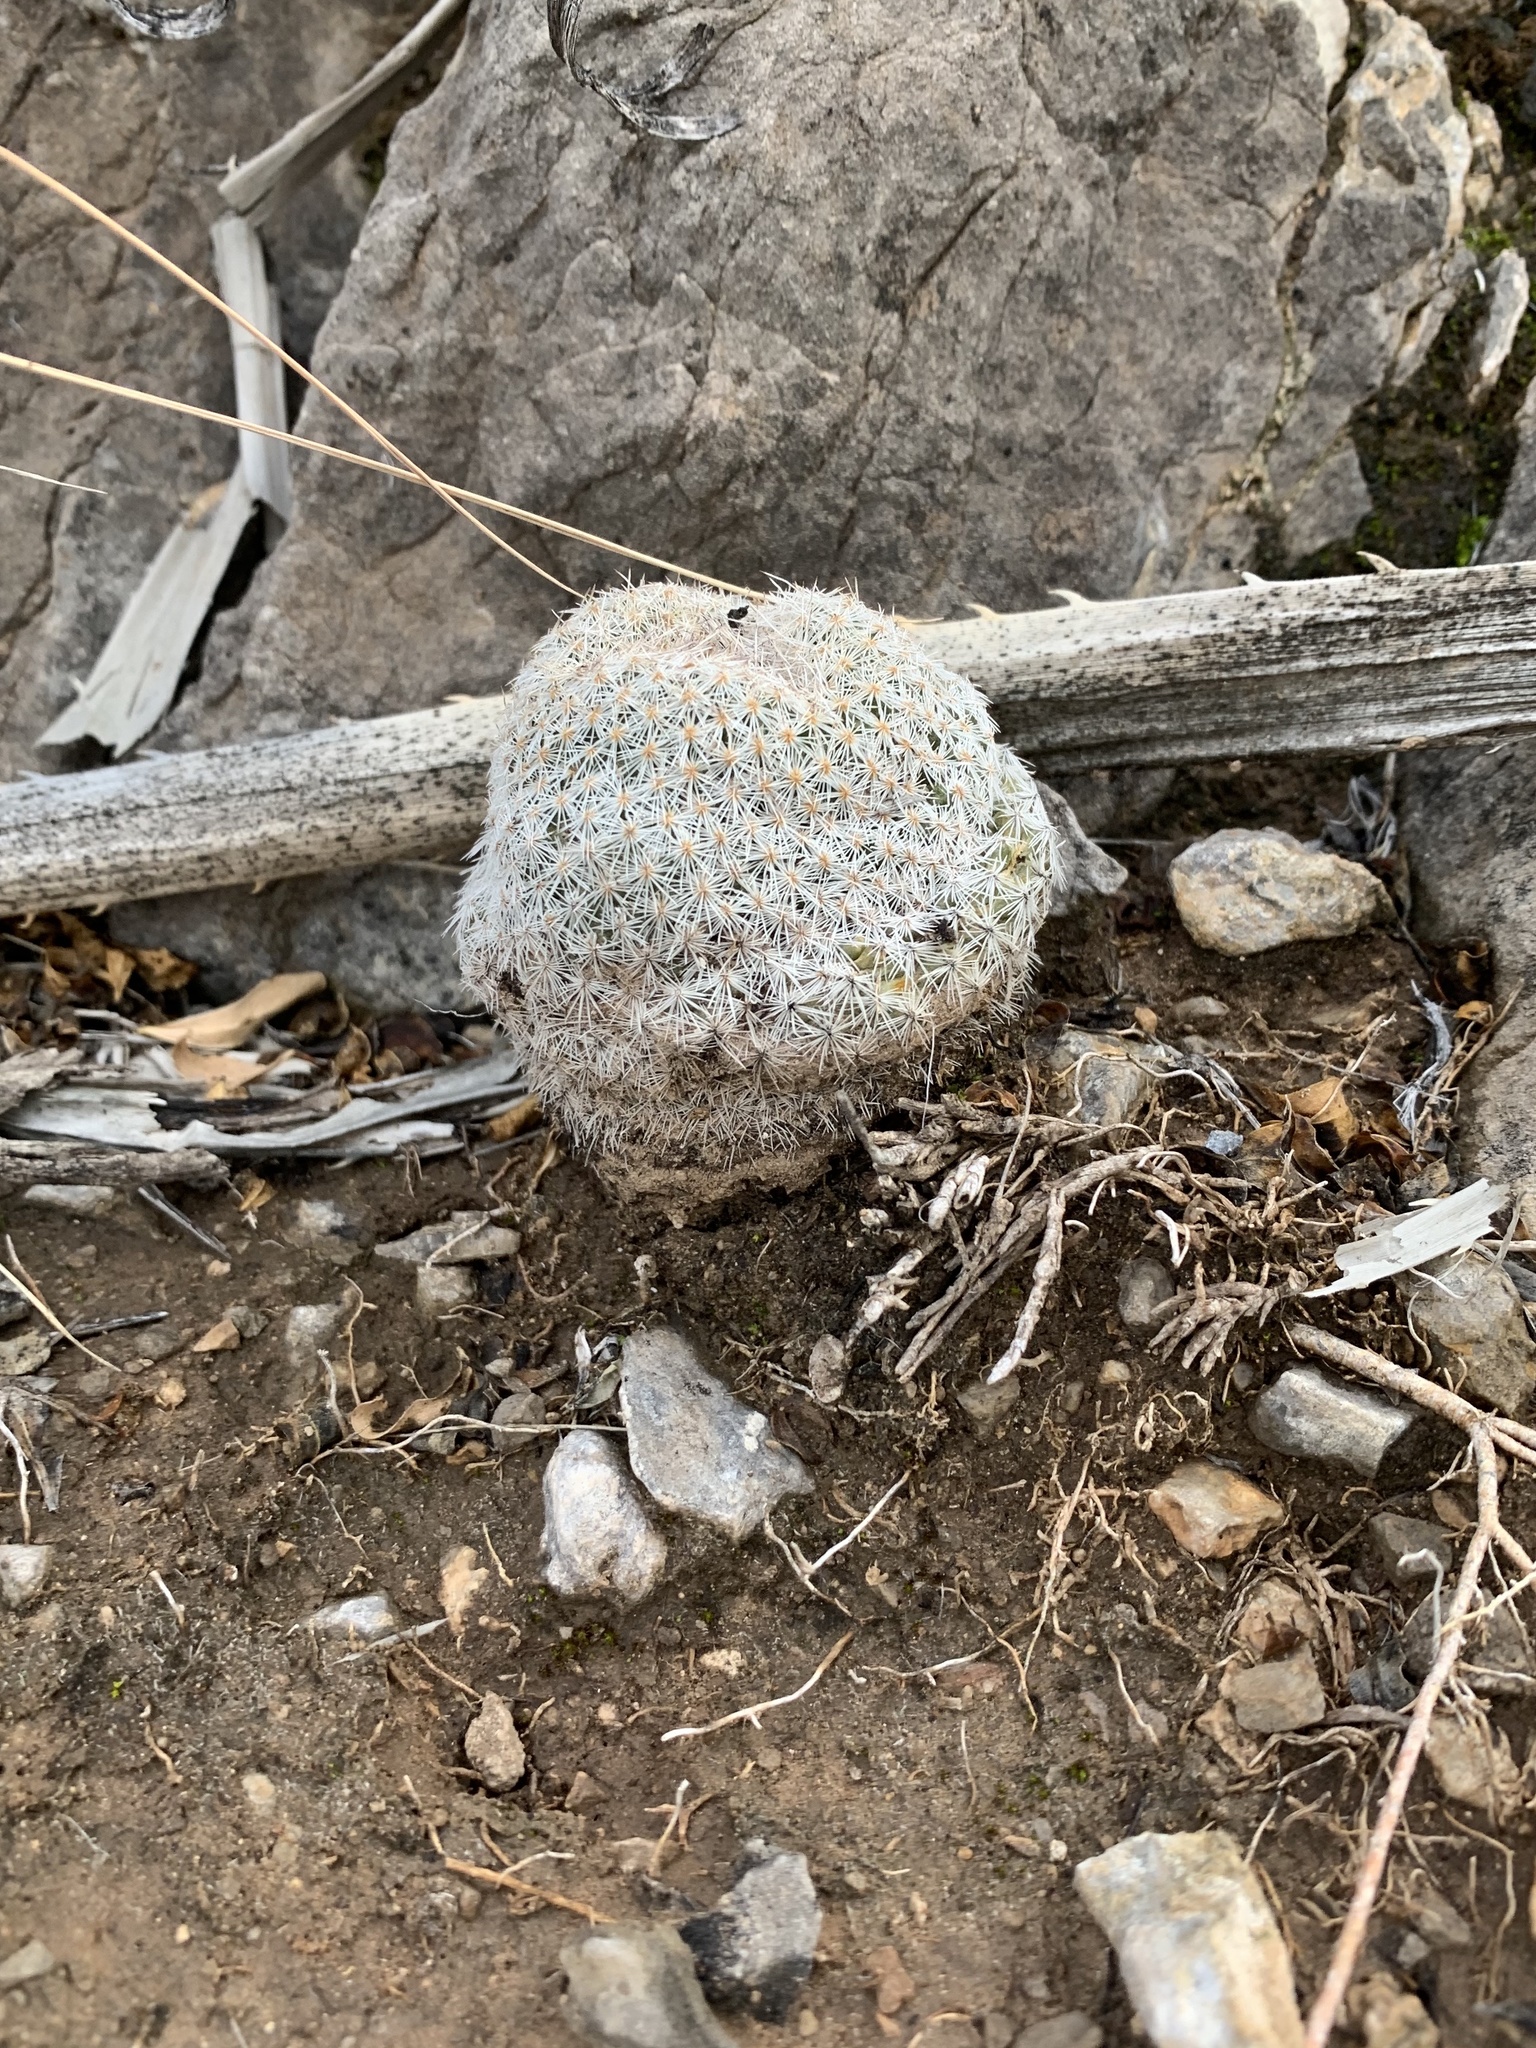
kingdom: Plantae
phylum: Tracheophyta
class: Magnoliopsida
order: Caryophyllales
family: Cactaceae
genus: Epithelantha
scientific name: Epithelantha micromeris
